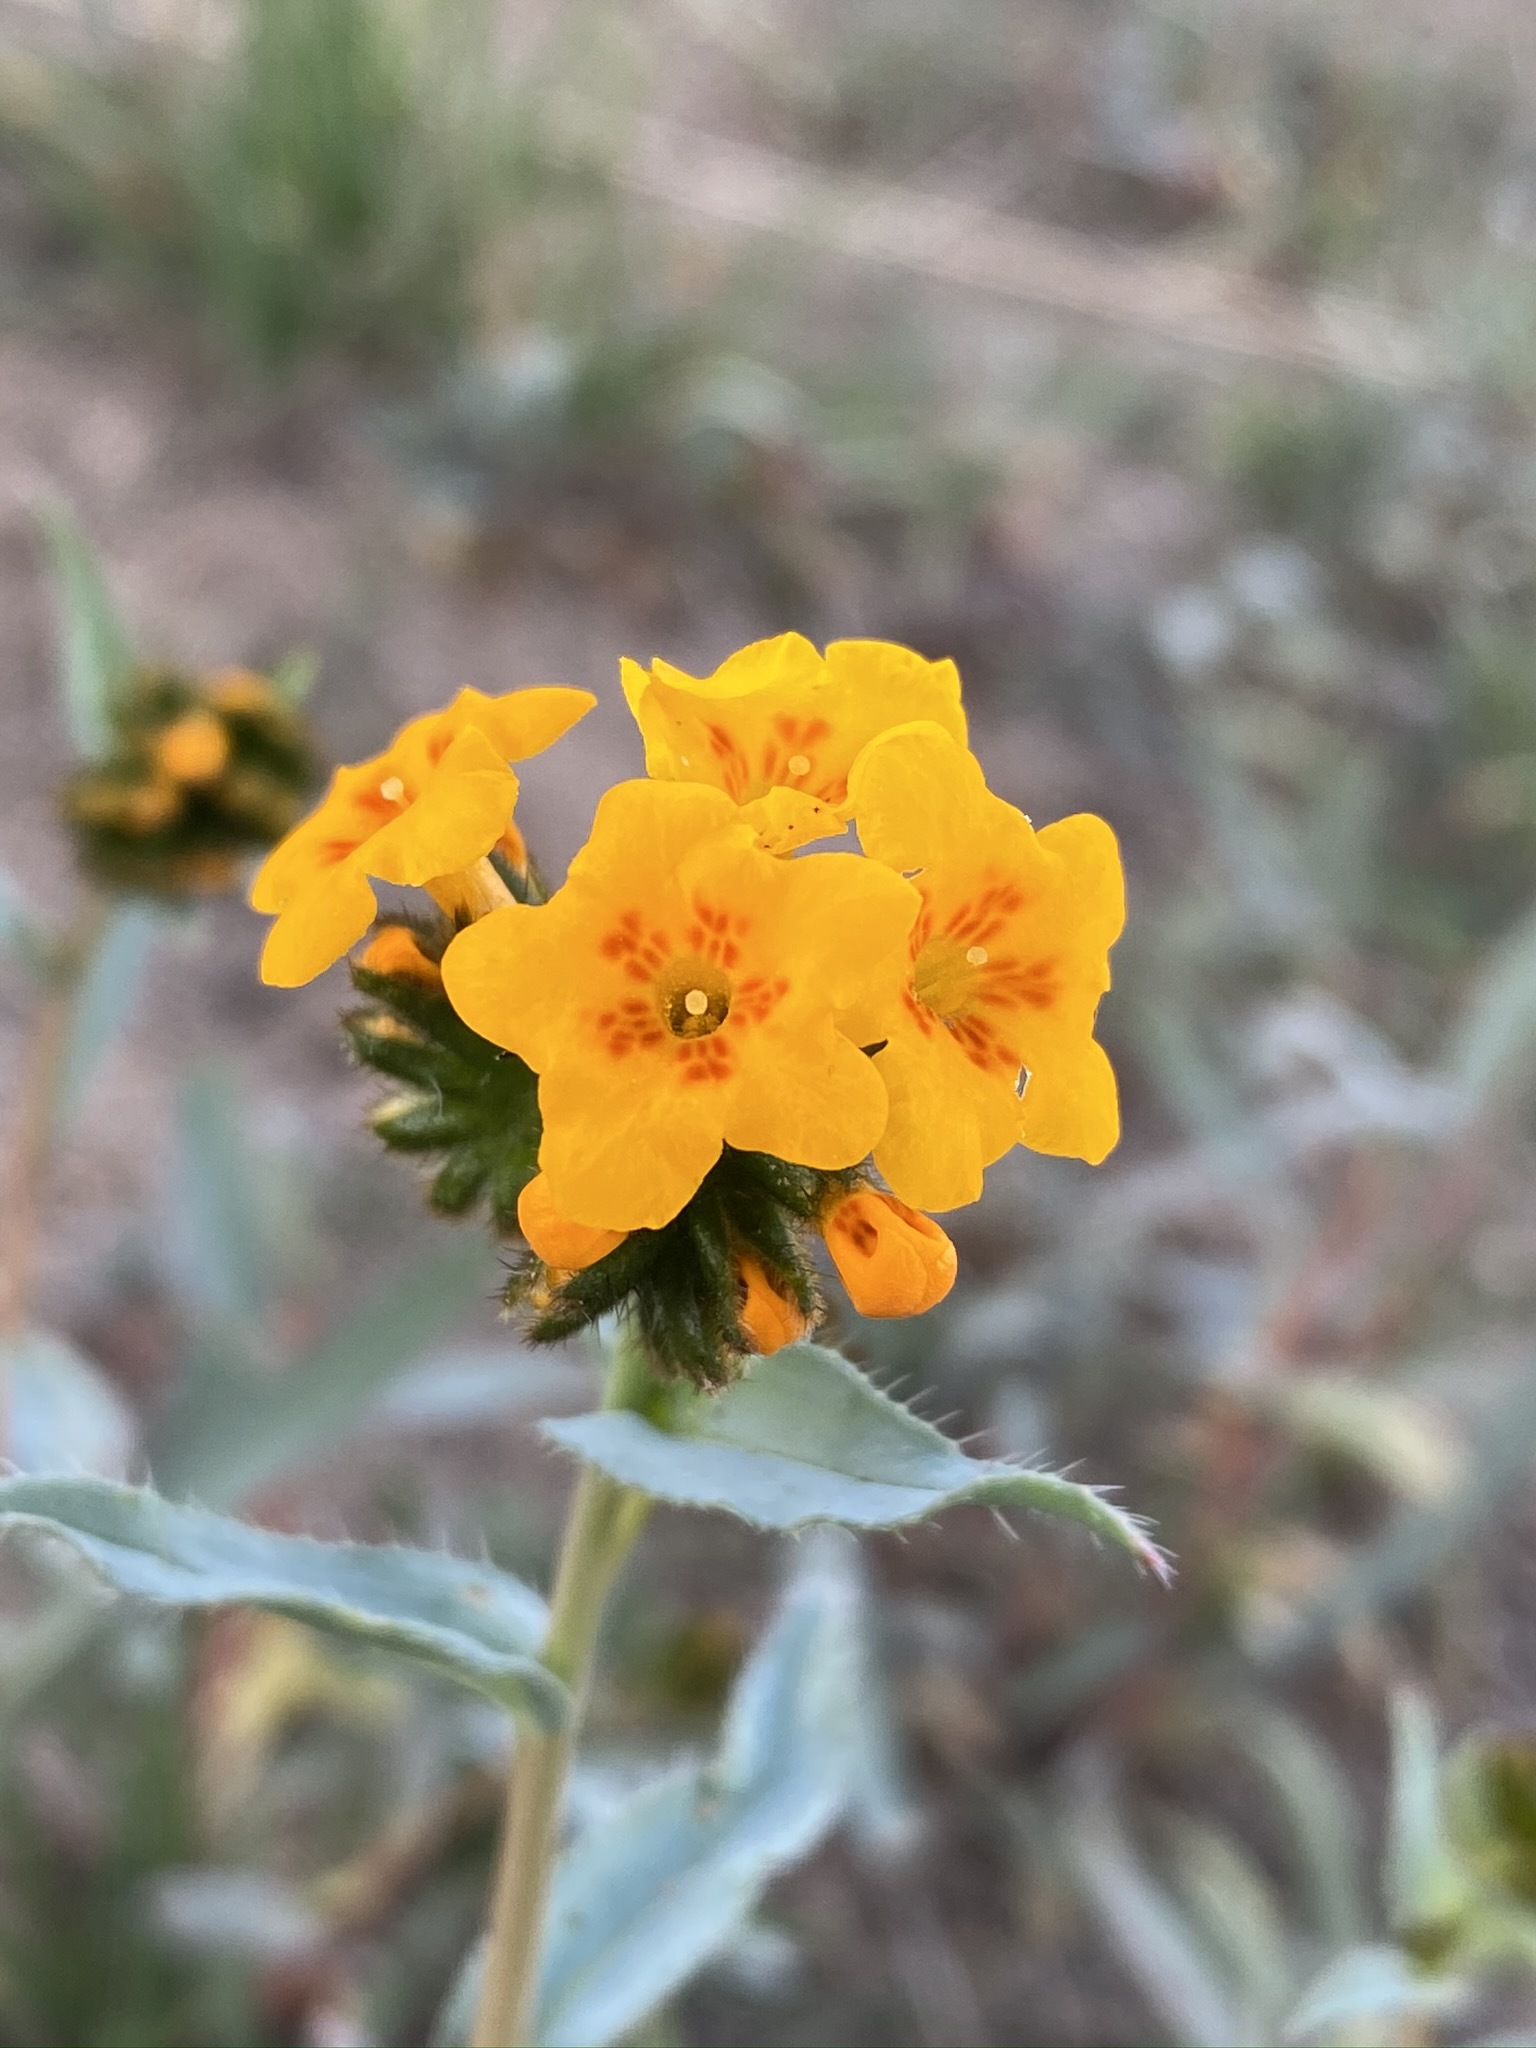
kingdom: Plantae
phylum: Tracheophyta
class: Magnoliopsida
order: Boraginales
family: Boraginaceae
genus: Amsinckia
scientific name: Amsinckia vernicosa
